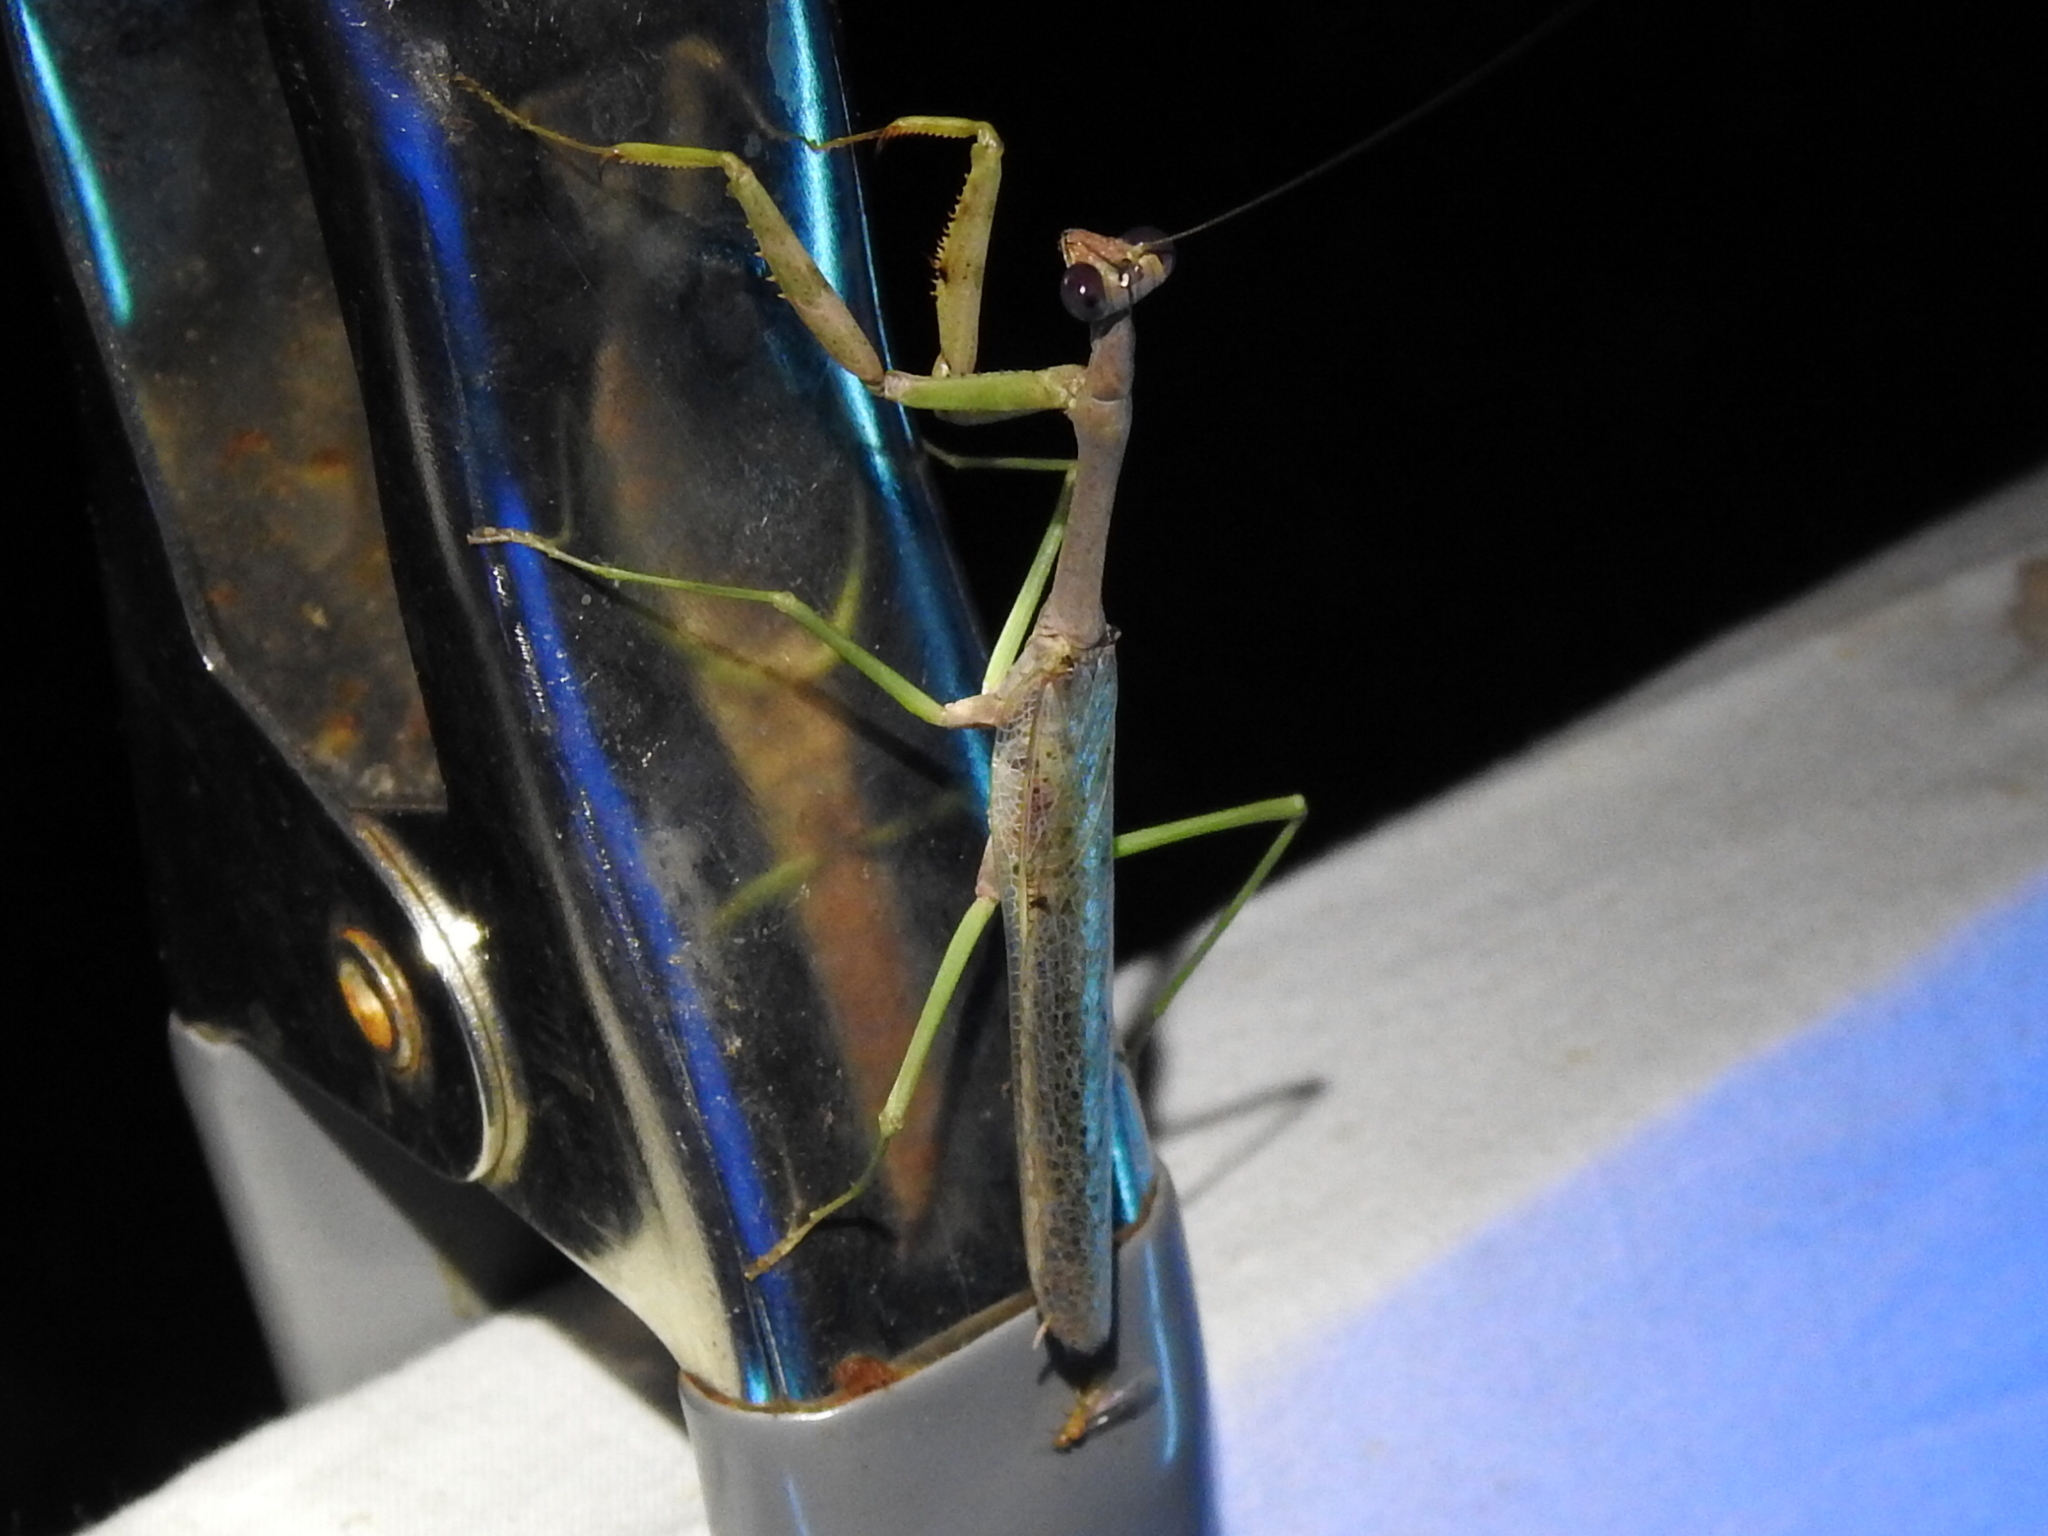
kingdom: Animalia
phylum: Arthropoda
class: Insecta
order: Mantodea
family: Mantidae
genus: Stagmomantis
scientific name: Stagmomantis carolina
